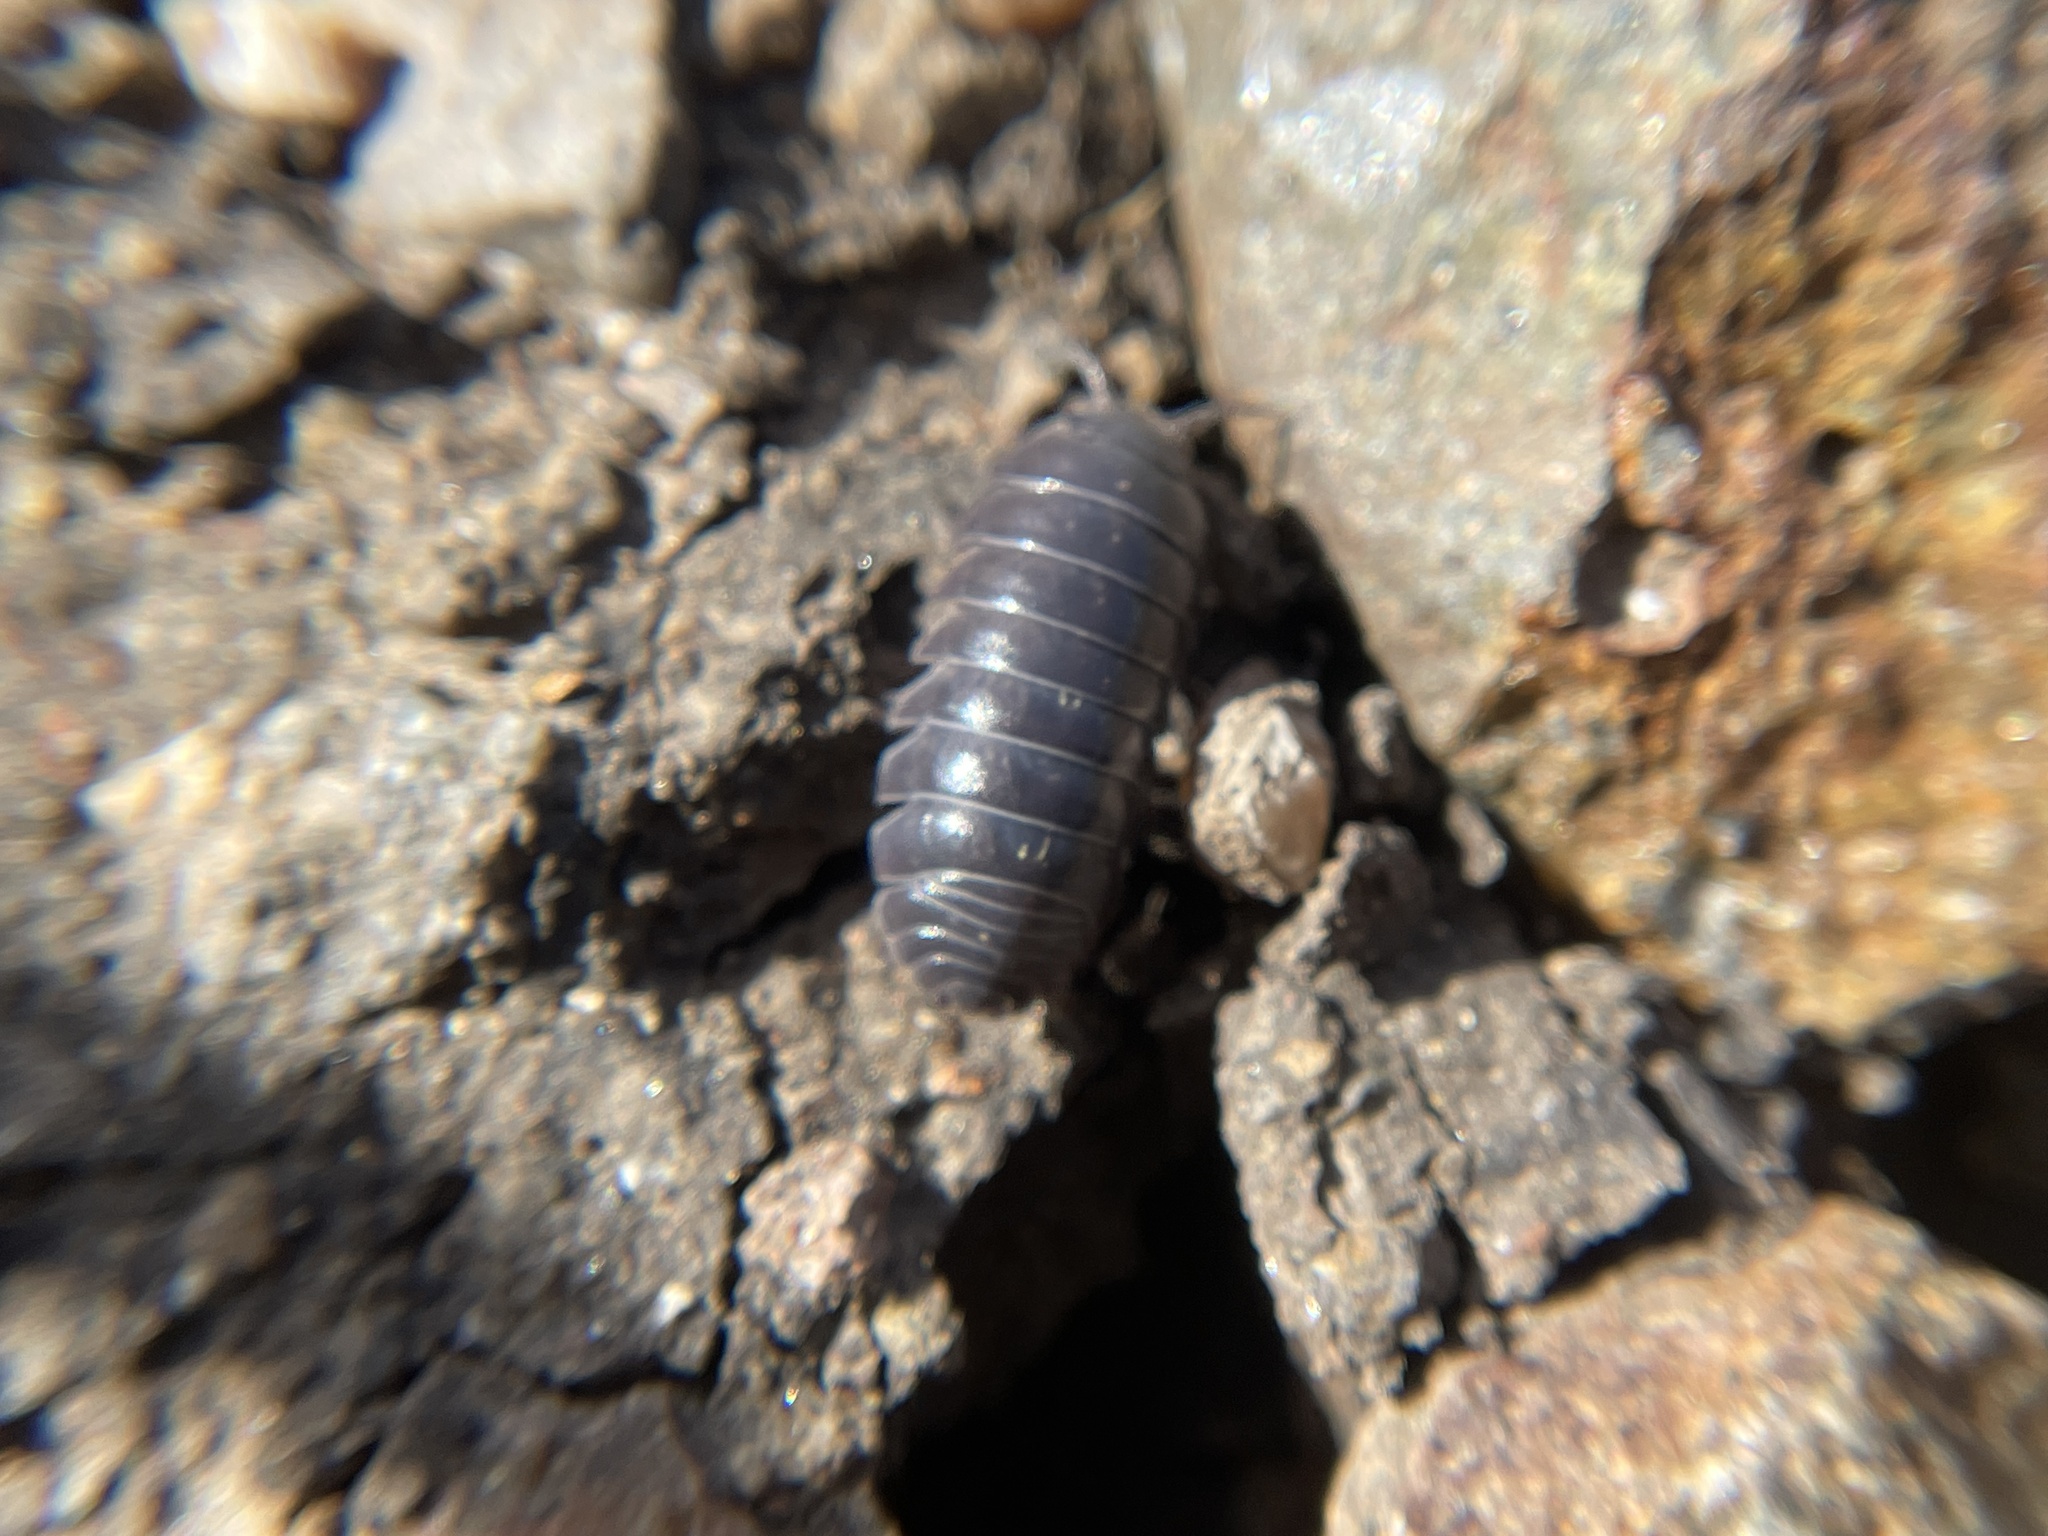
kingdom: Animalia
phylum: Arthropoda
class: Malacostraca
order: Isopoda
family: Armadillidiidae
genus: Armadillidium
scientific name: Armadillidium vulgare
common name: Common pill woodlouse
